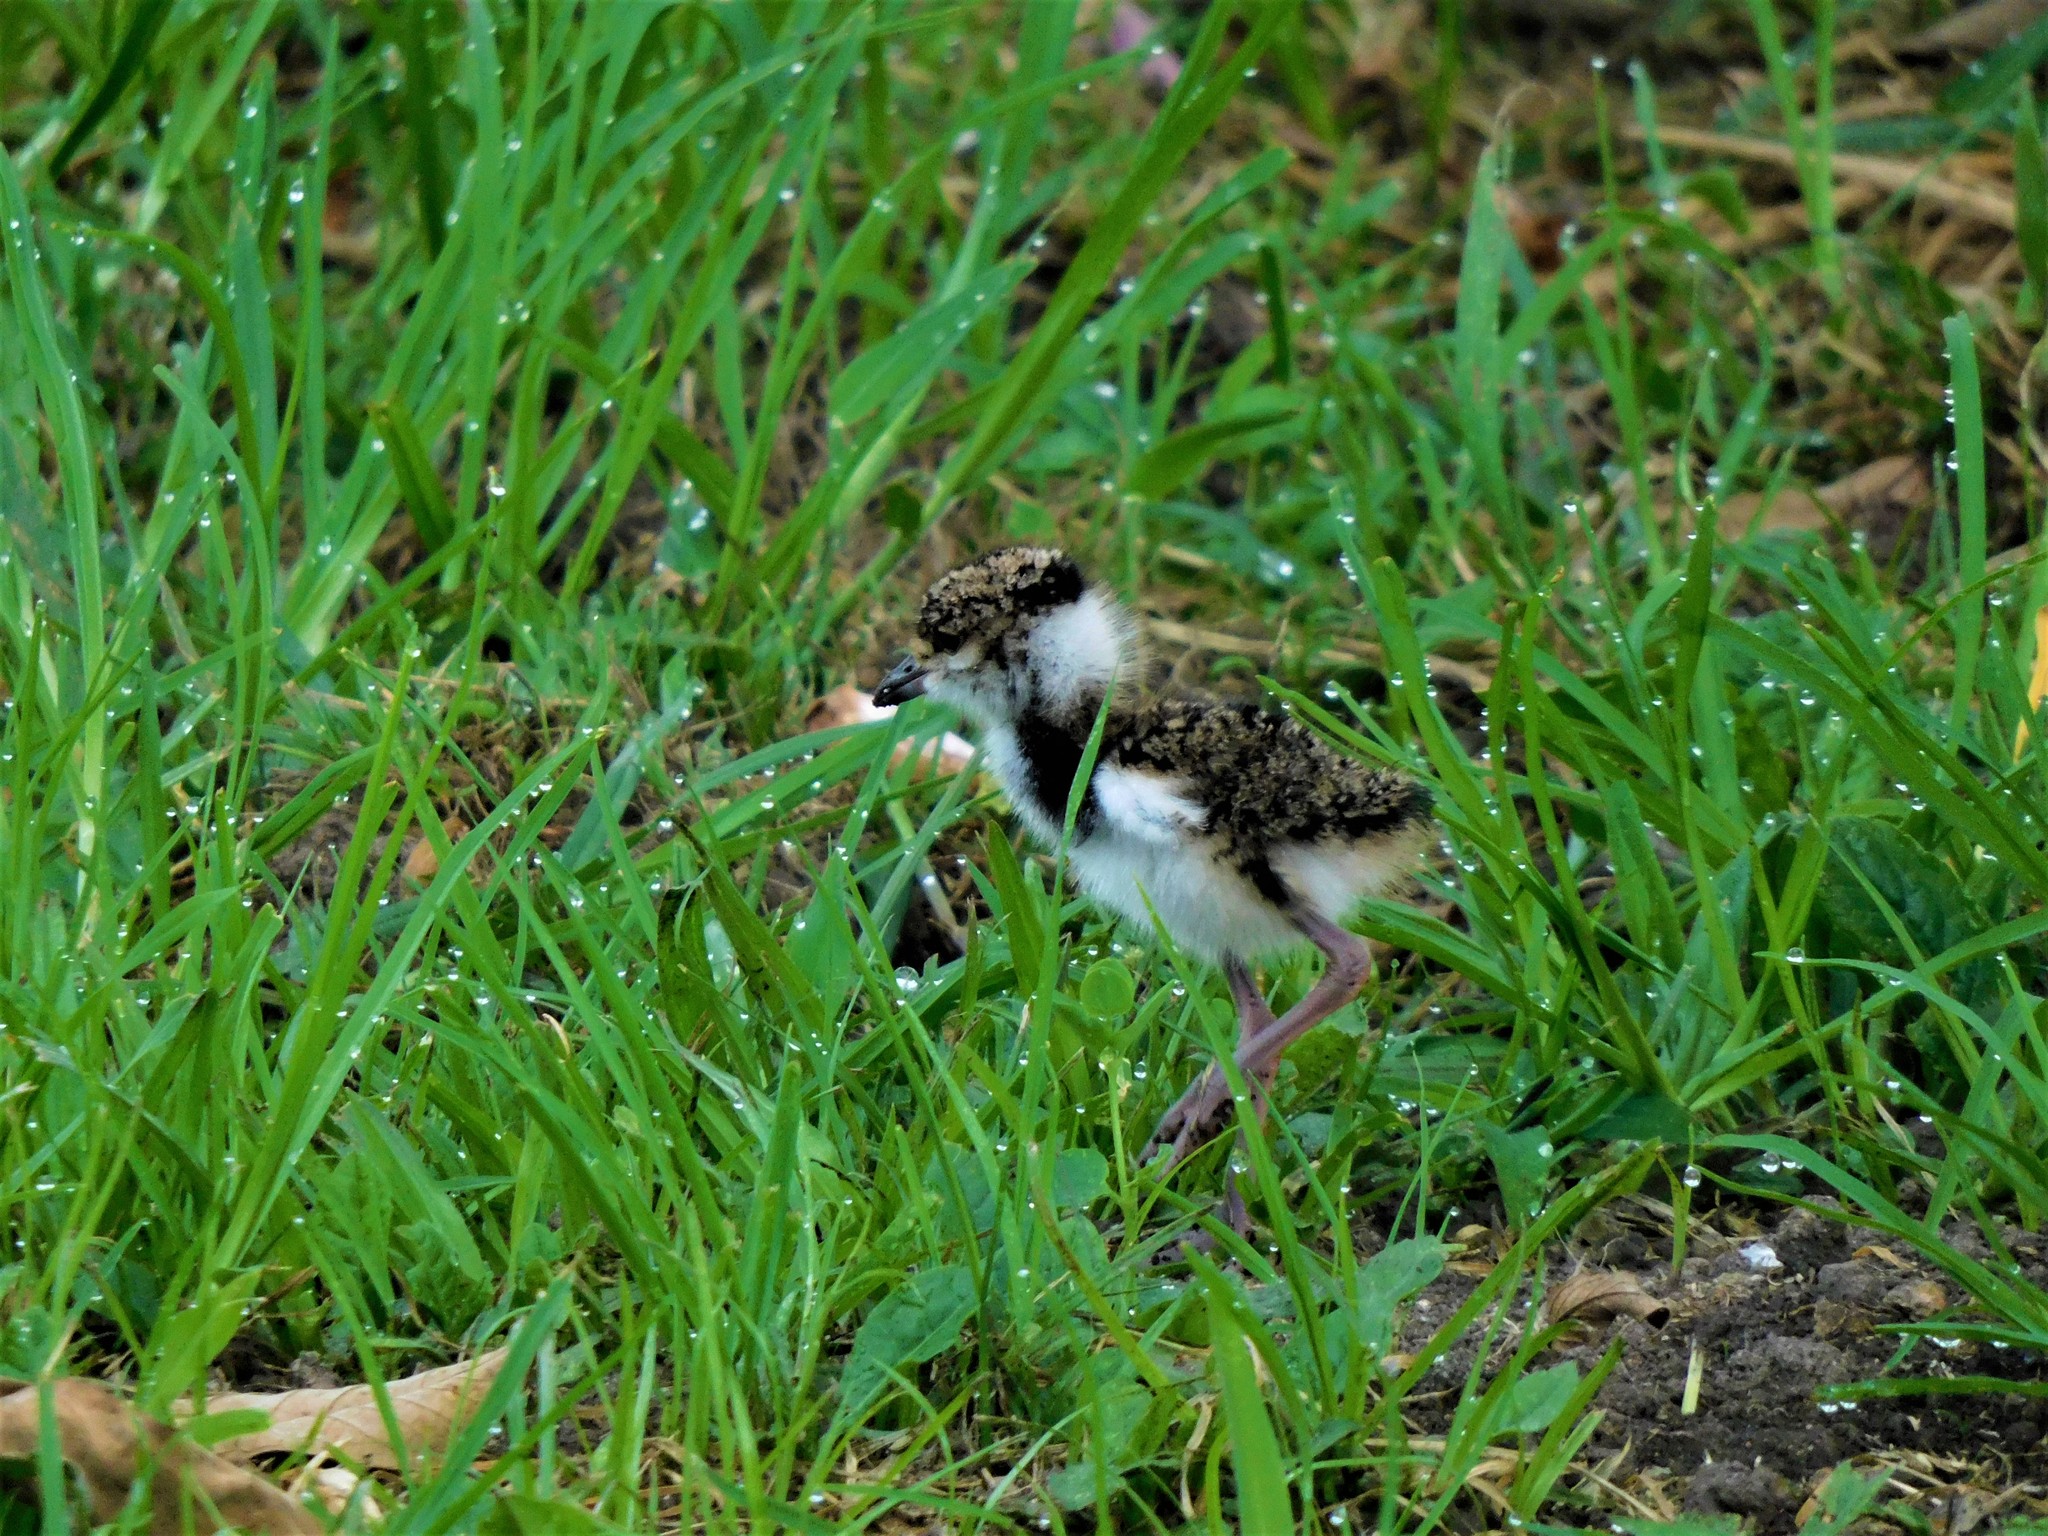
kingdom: Animalia
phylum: Chordata
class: Aves
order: Charadriiformes
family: Charadriidae
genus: Vanellus
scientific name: Vanellus chilensis
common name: Southern lapwing
